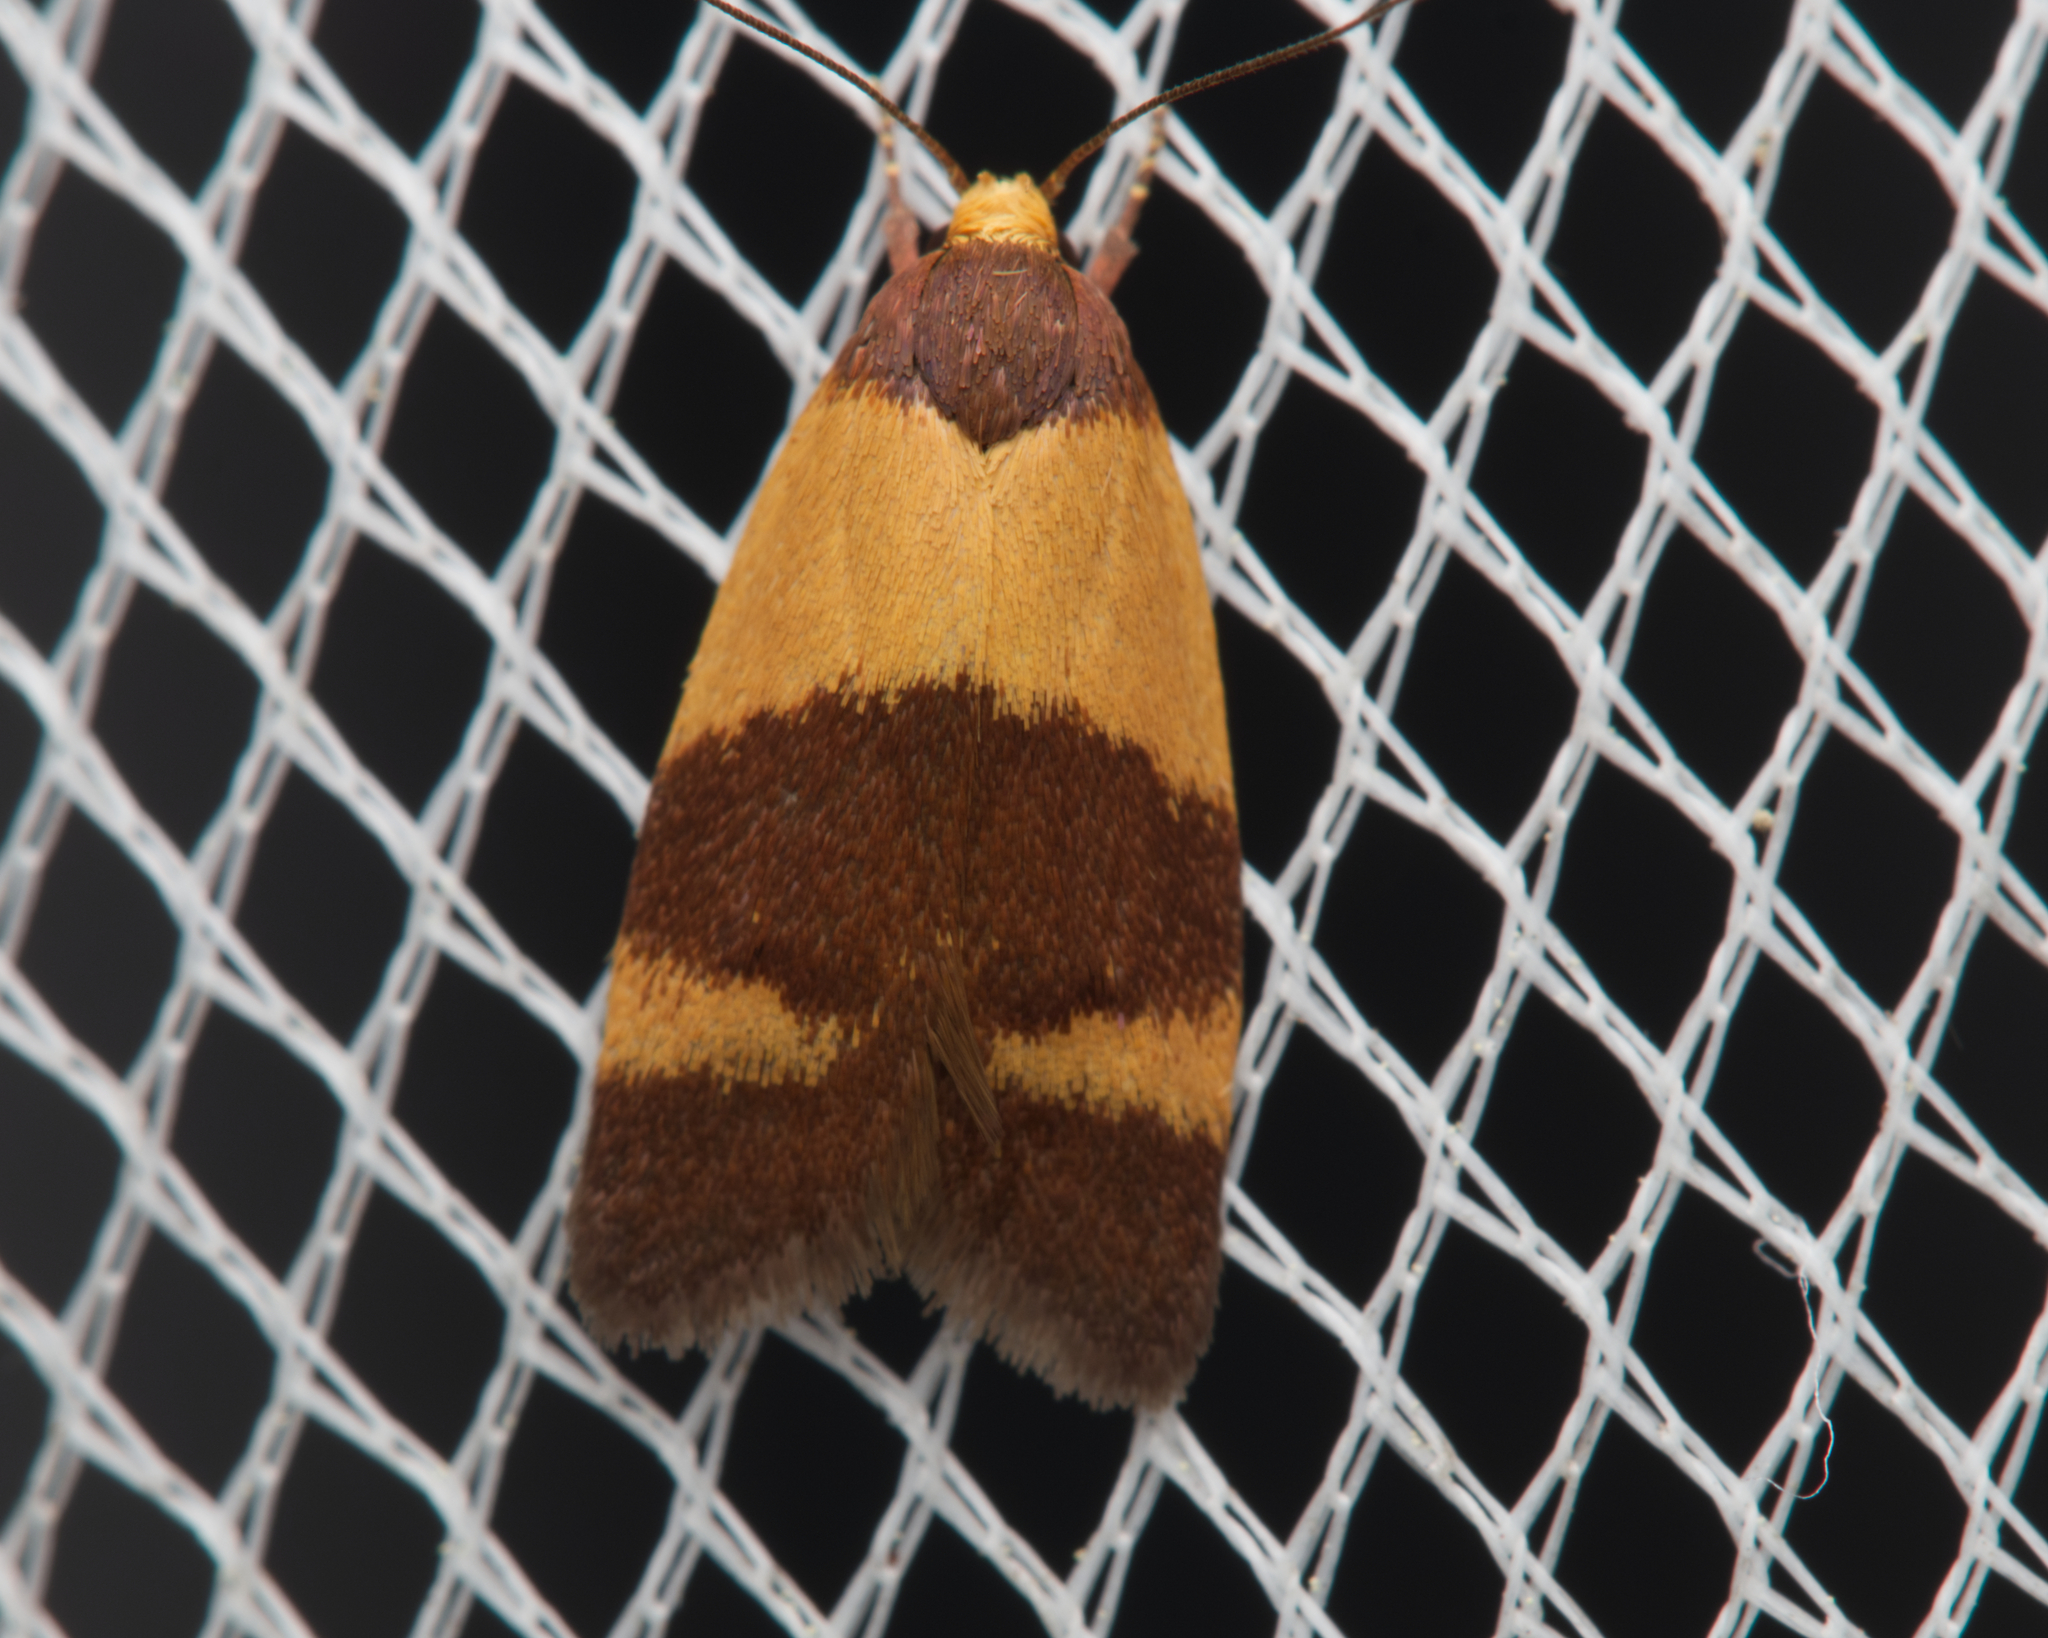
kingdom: Animalia
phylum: Arthropoda
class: Insecta
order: Lepidoptera
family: Oecophoridae
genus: Eochrois
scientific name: Eochrois epidesma
